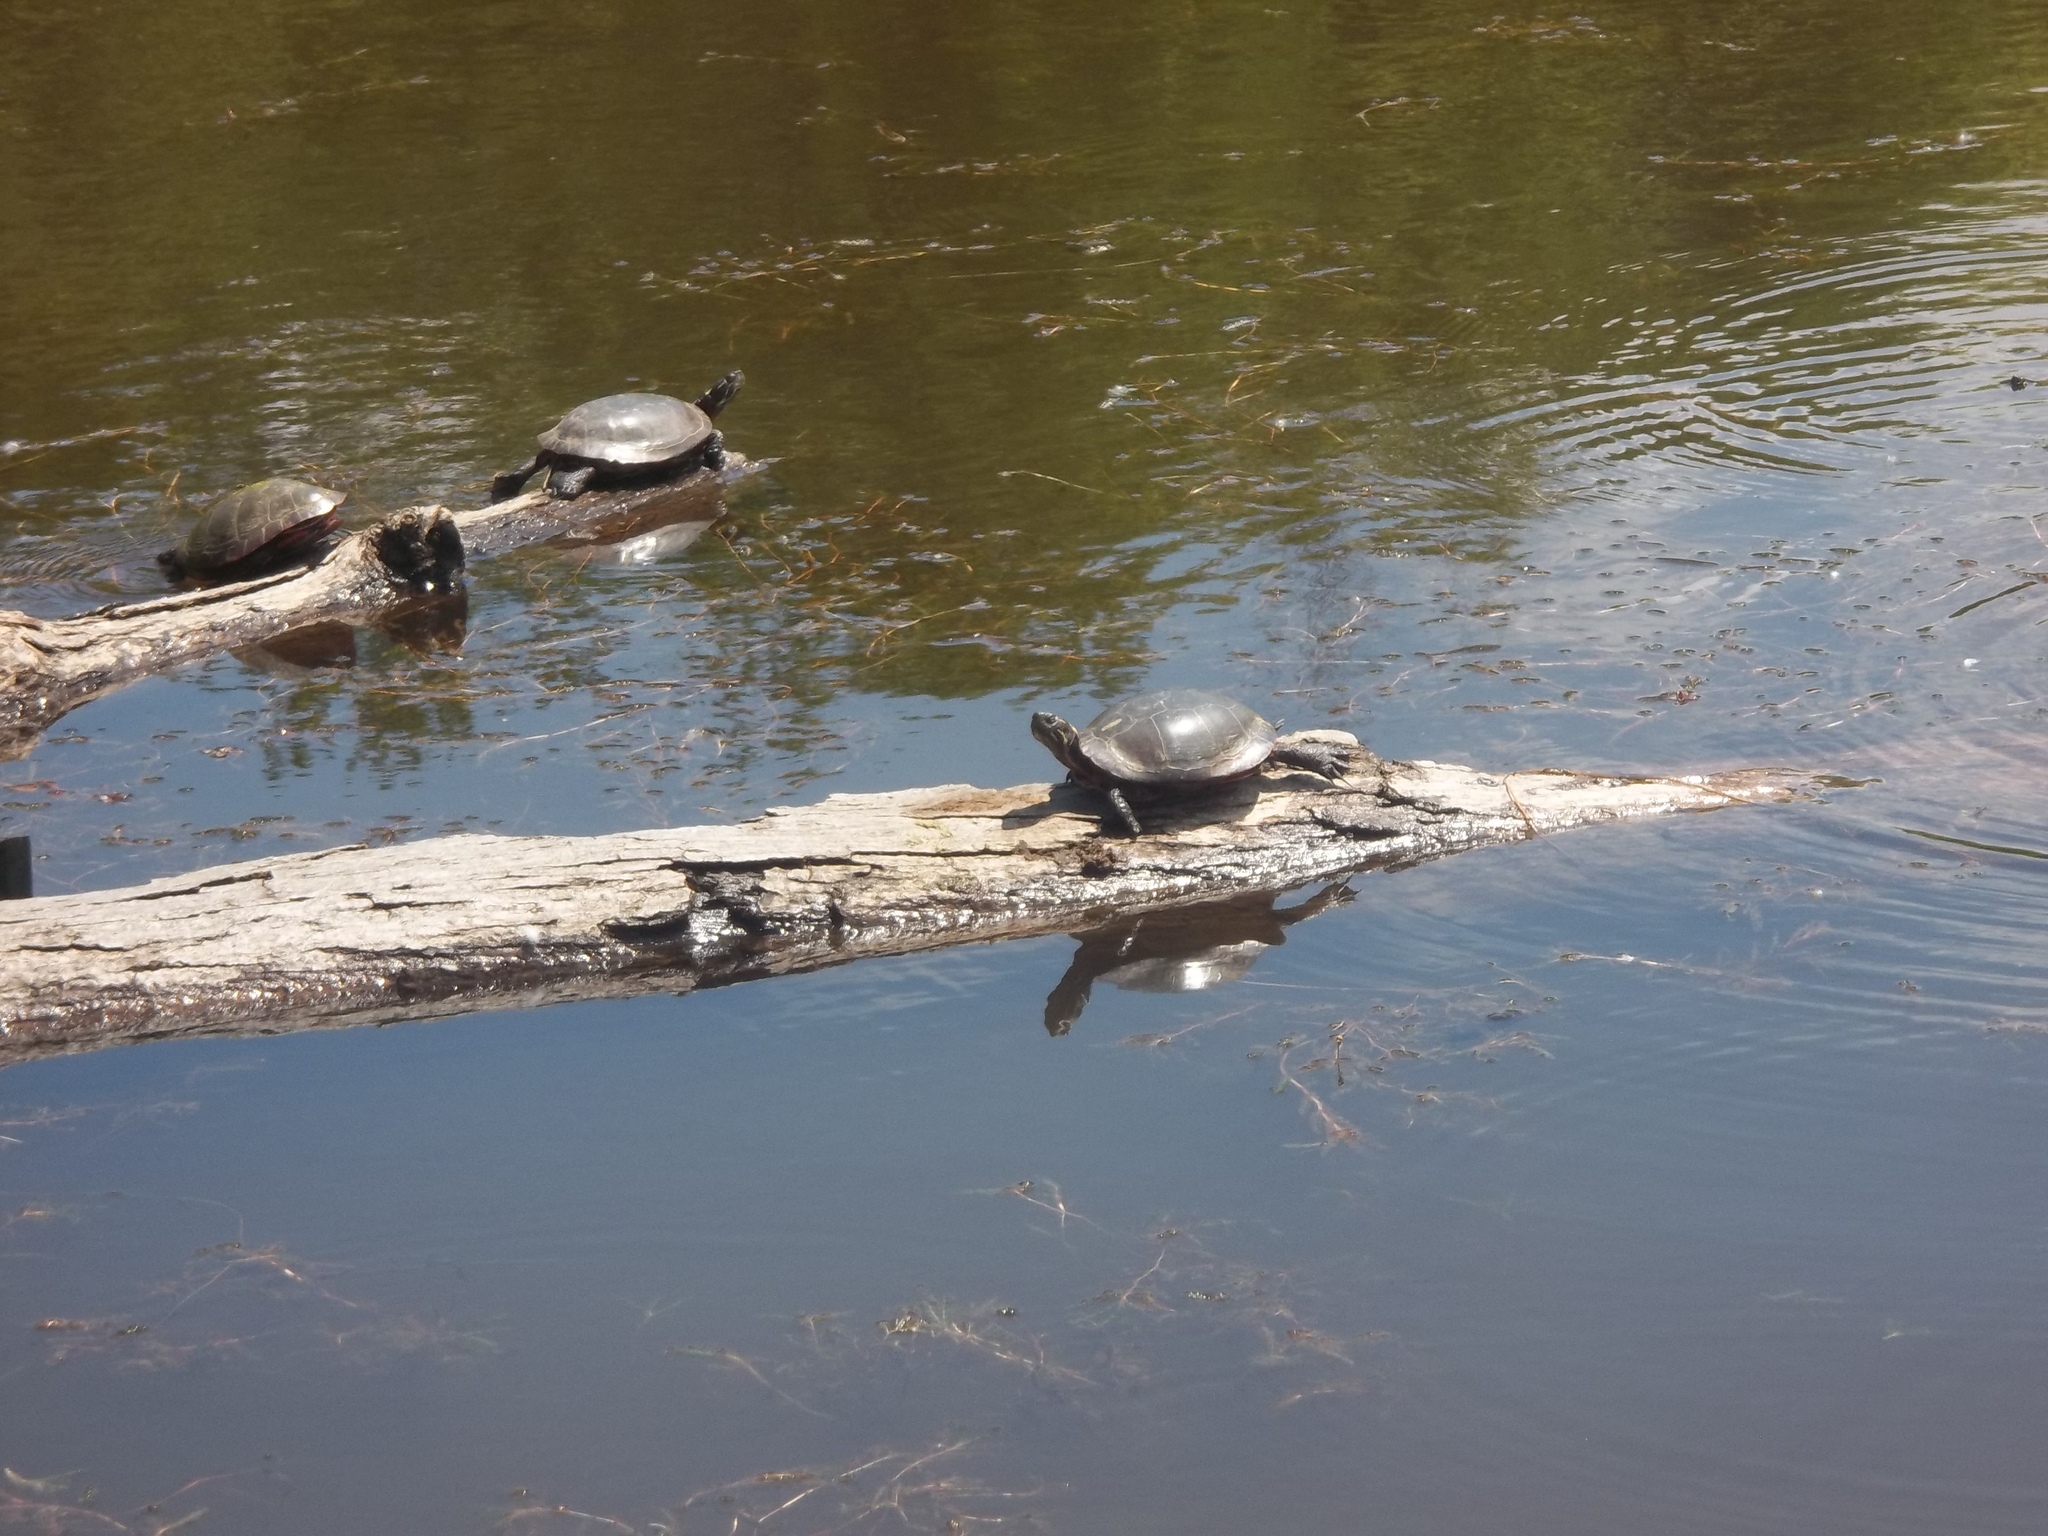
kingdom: Animalia
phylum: Chordata
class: Testudines
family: Emydidae
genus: Chrysemys
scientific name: Chrysemys picta
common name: Painted turtle
